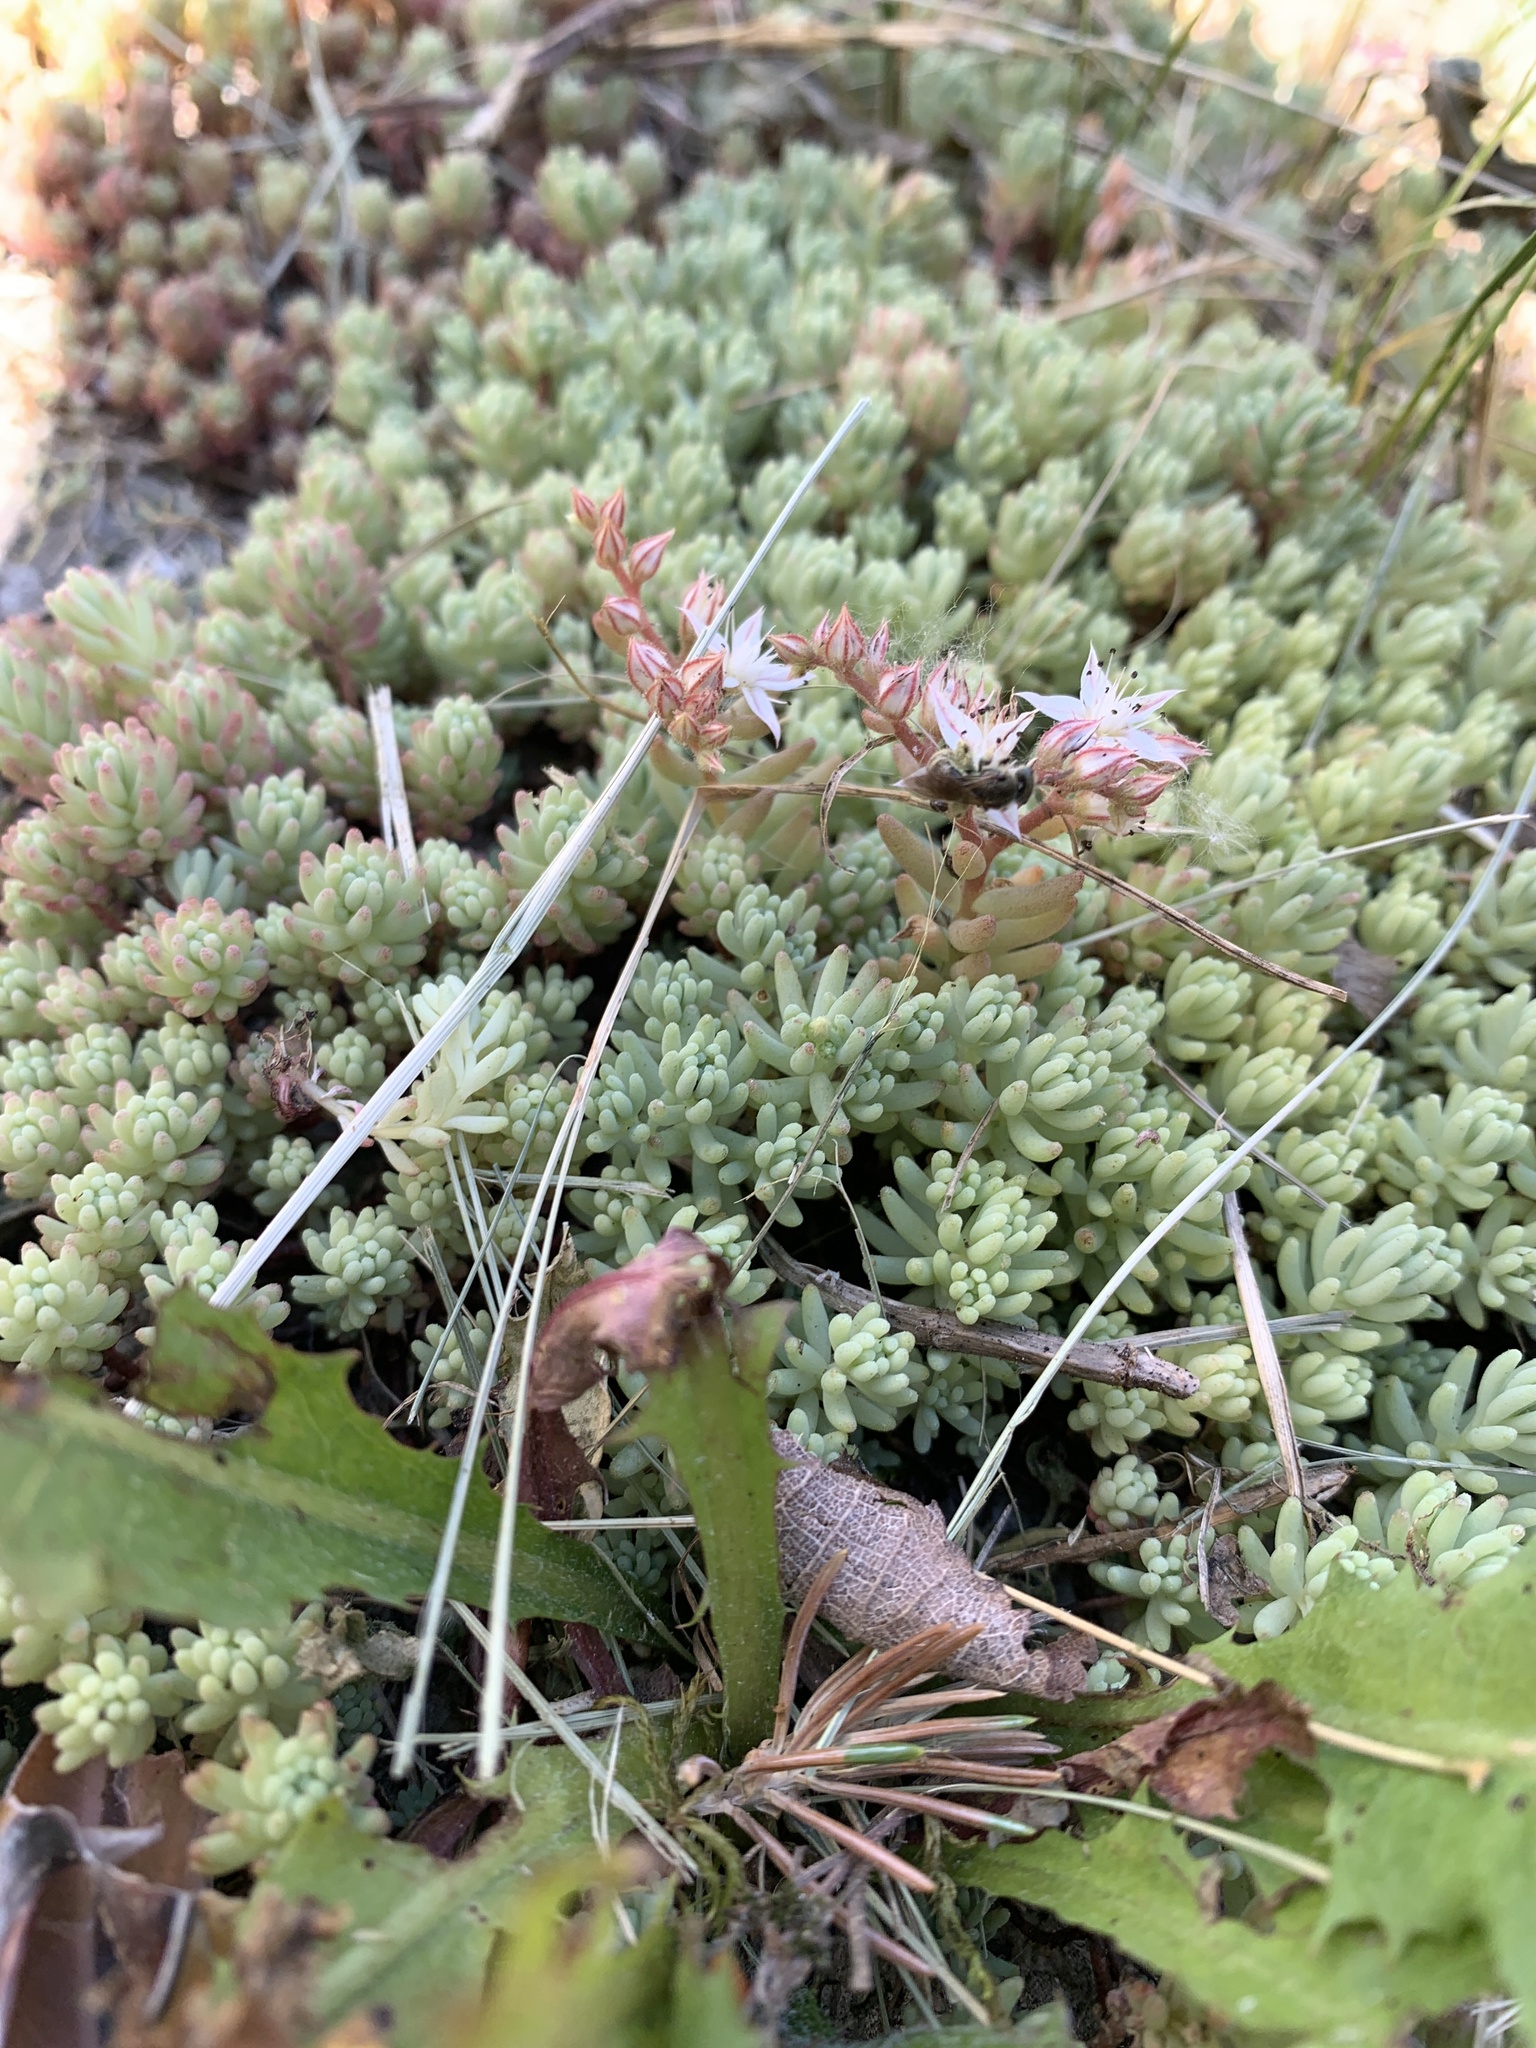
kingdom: Plantae
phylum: Tracheophyta
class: Magnoliopsida
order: Saxifragales
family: Crassulaceae
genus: Sedum
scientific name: Sedum pallidum
